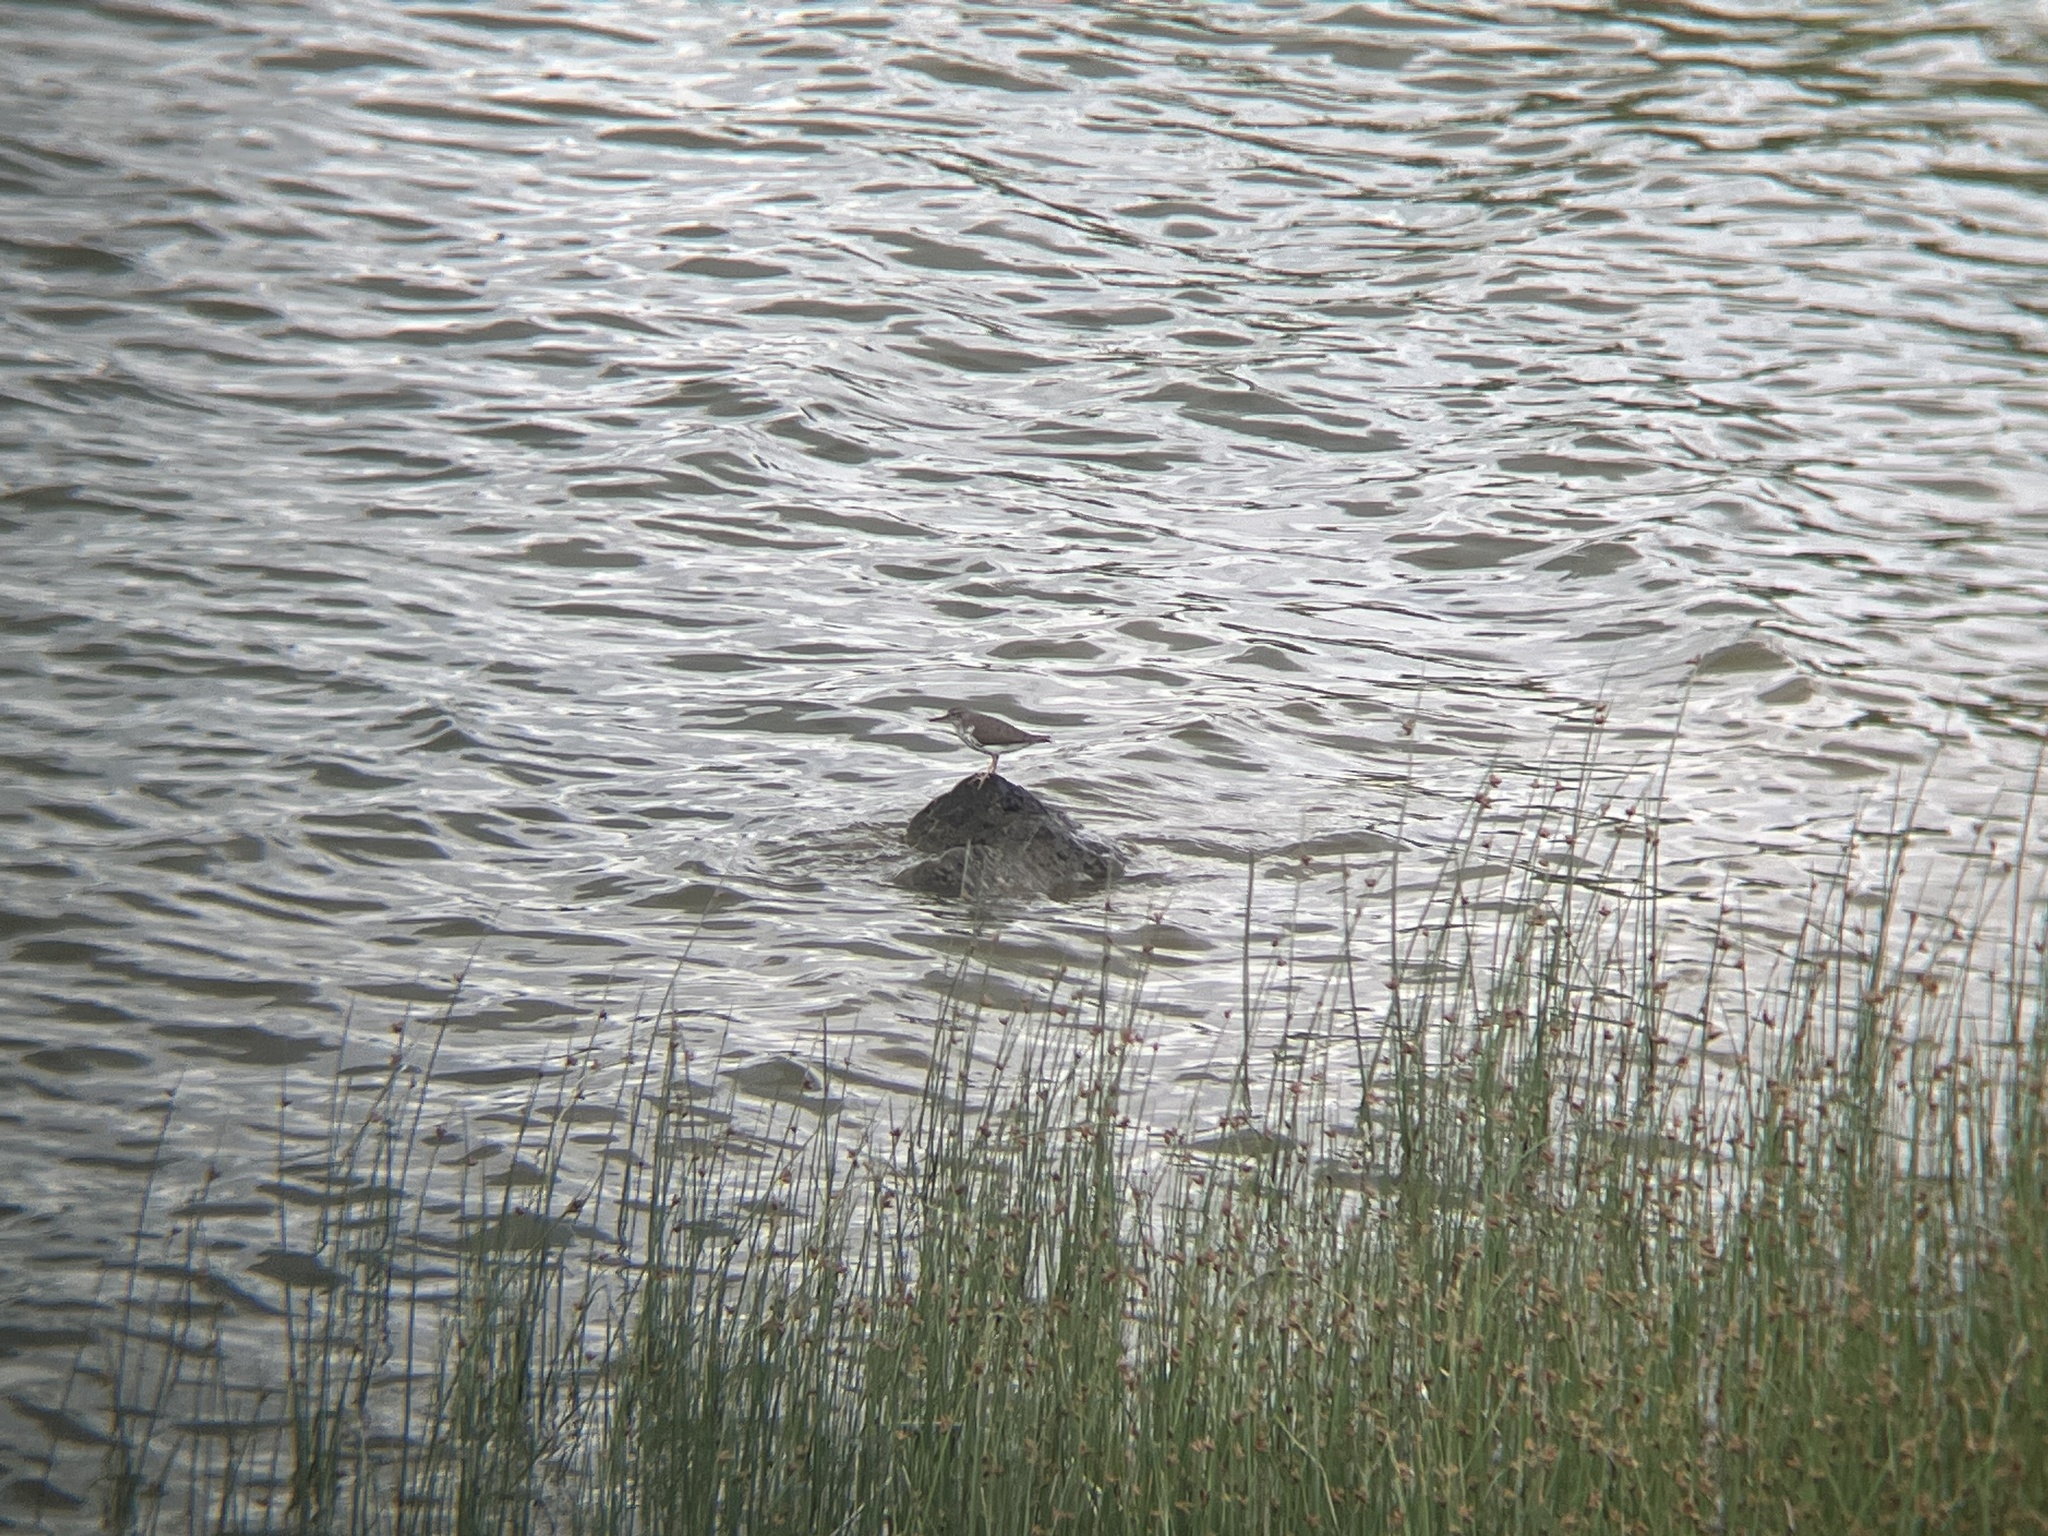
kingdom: Animalia
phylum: Chordata
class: Aves
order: Charadriiformes
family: Scolopacidae
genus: Actitis
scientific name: Actitis macularius
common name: Spotted sandpiper
